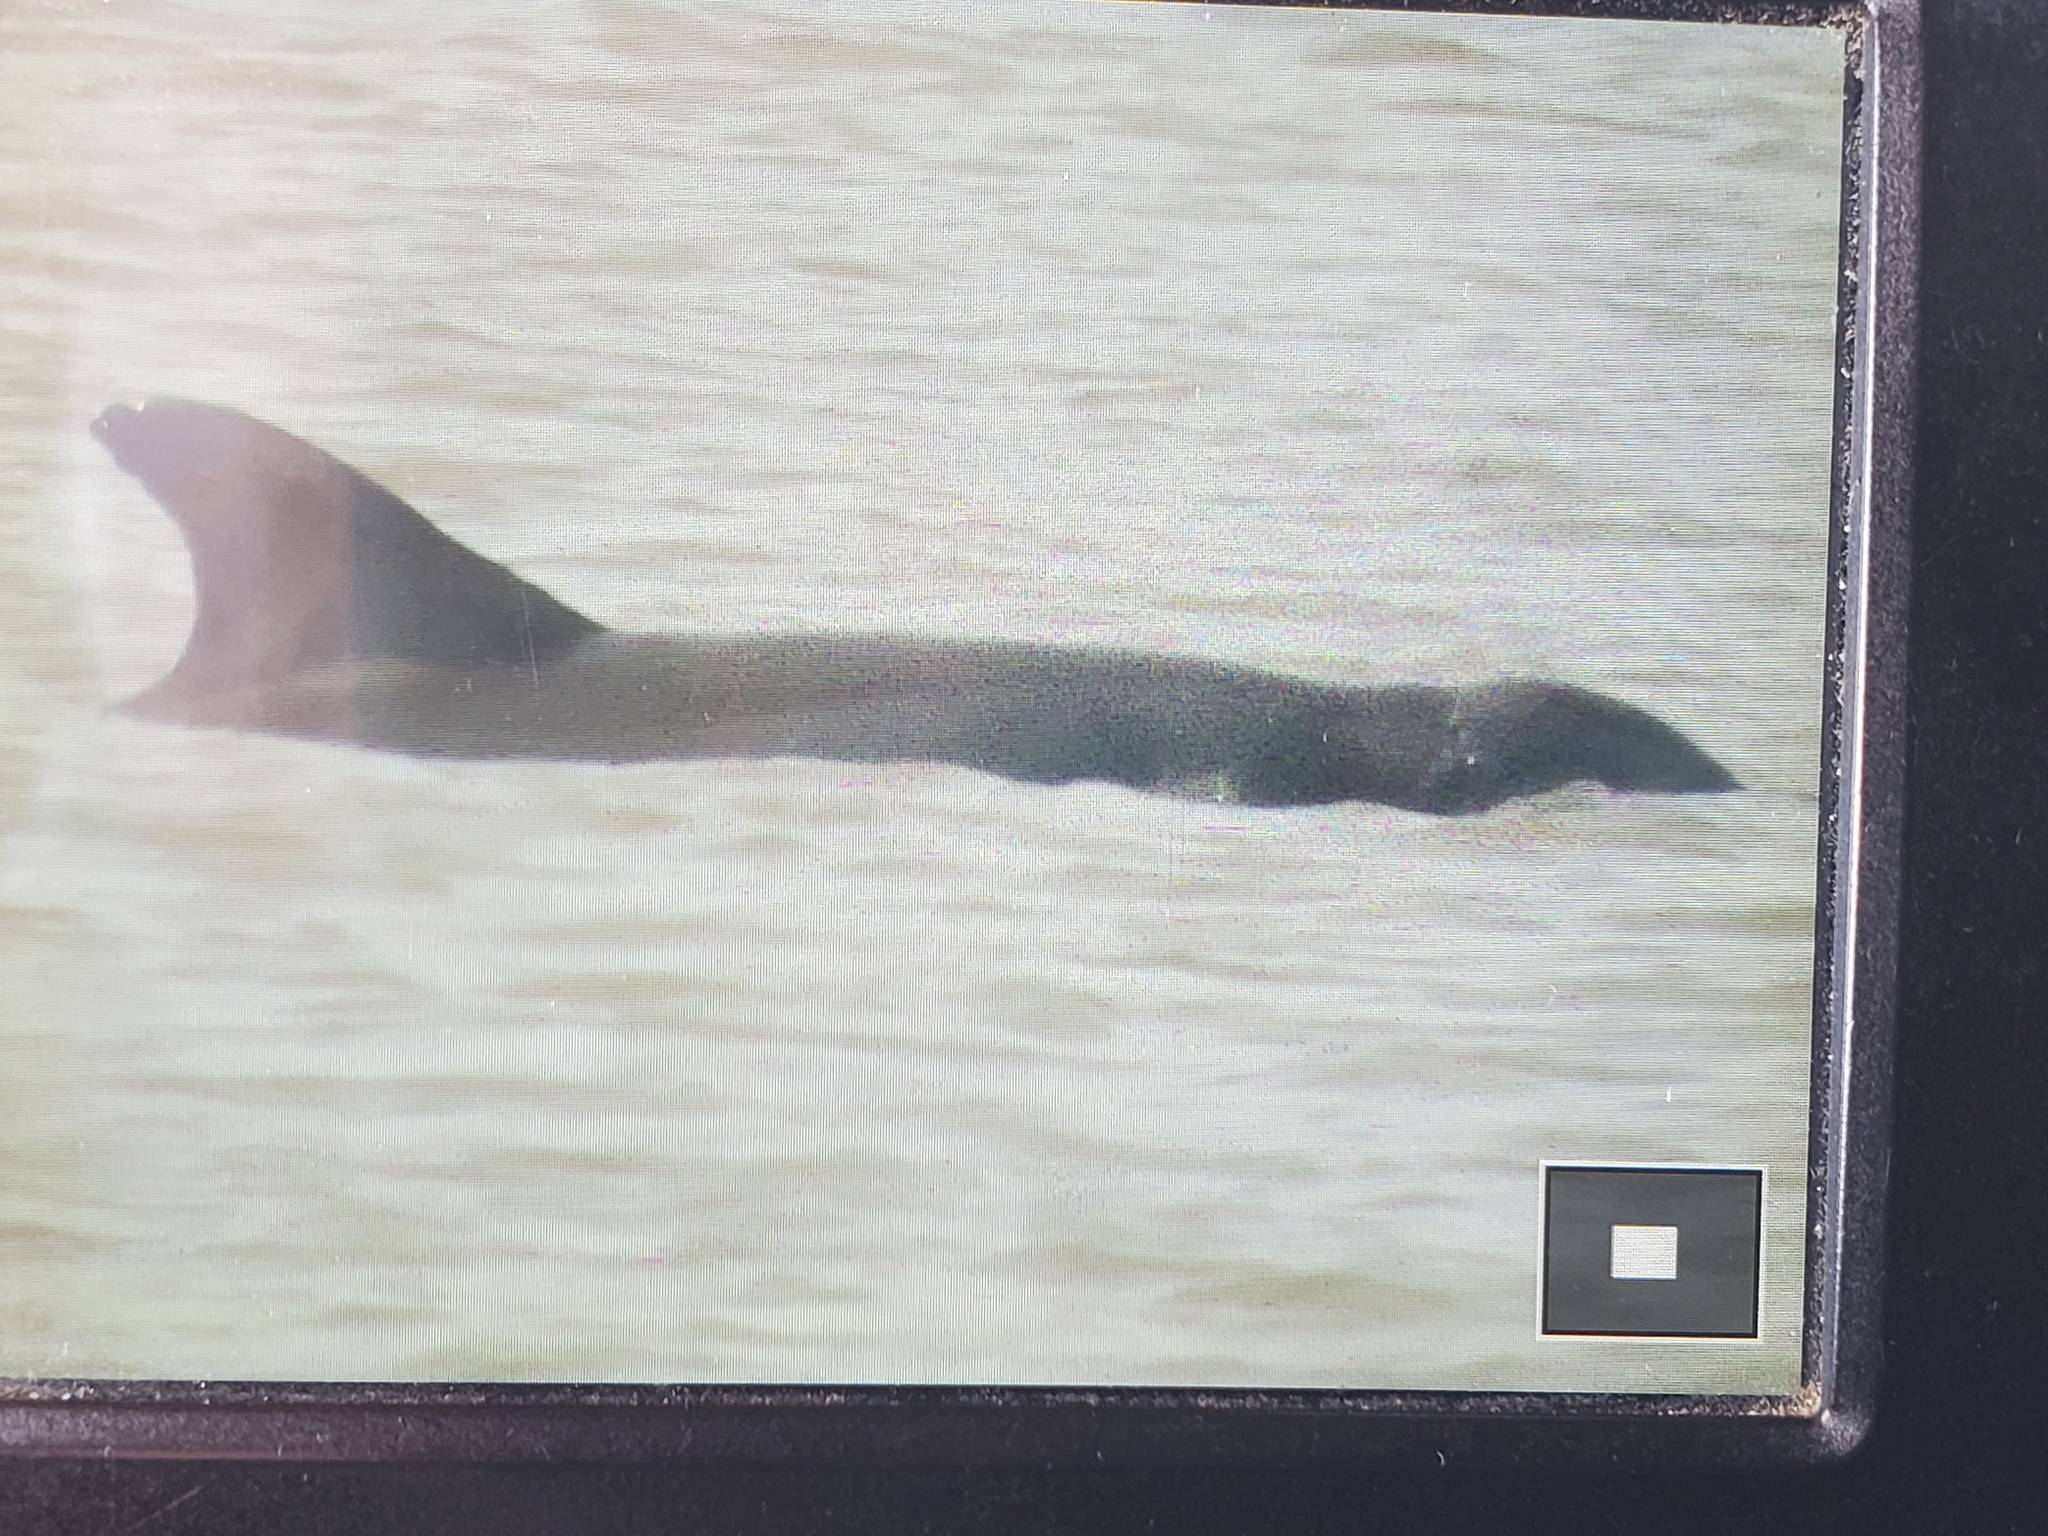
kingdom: Animalia
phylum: Chordata
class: Mammalia
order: Cetacea
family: Delphinidae
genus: Tursiops
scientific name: Tursiops truncatus
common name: Bottlenose dolphin
